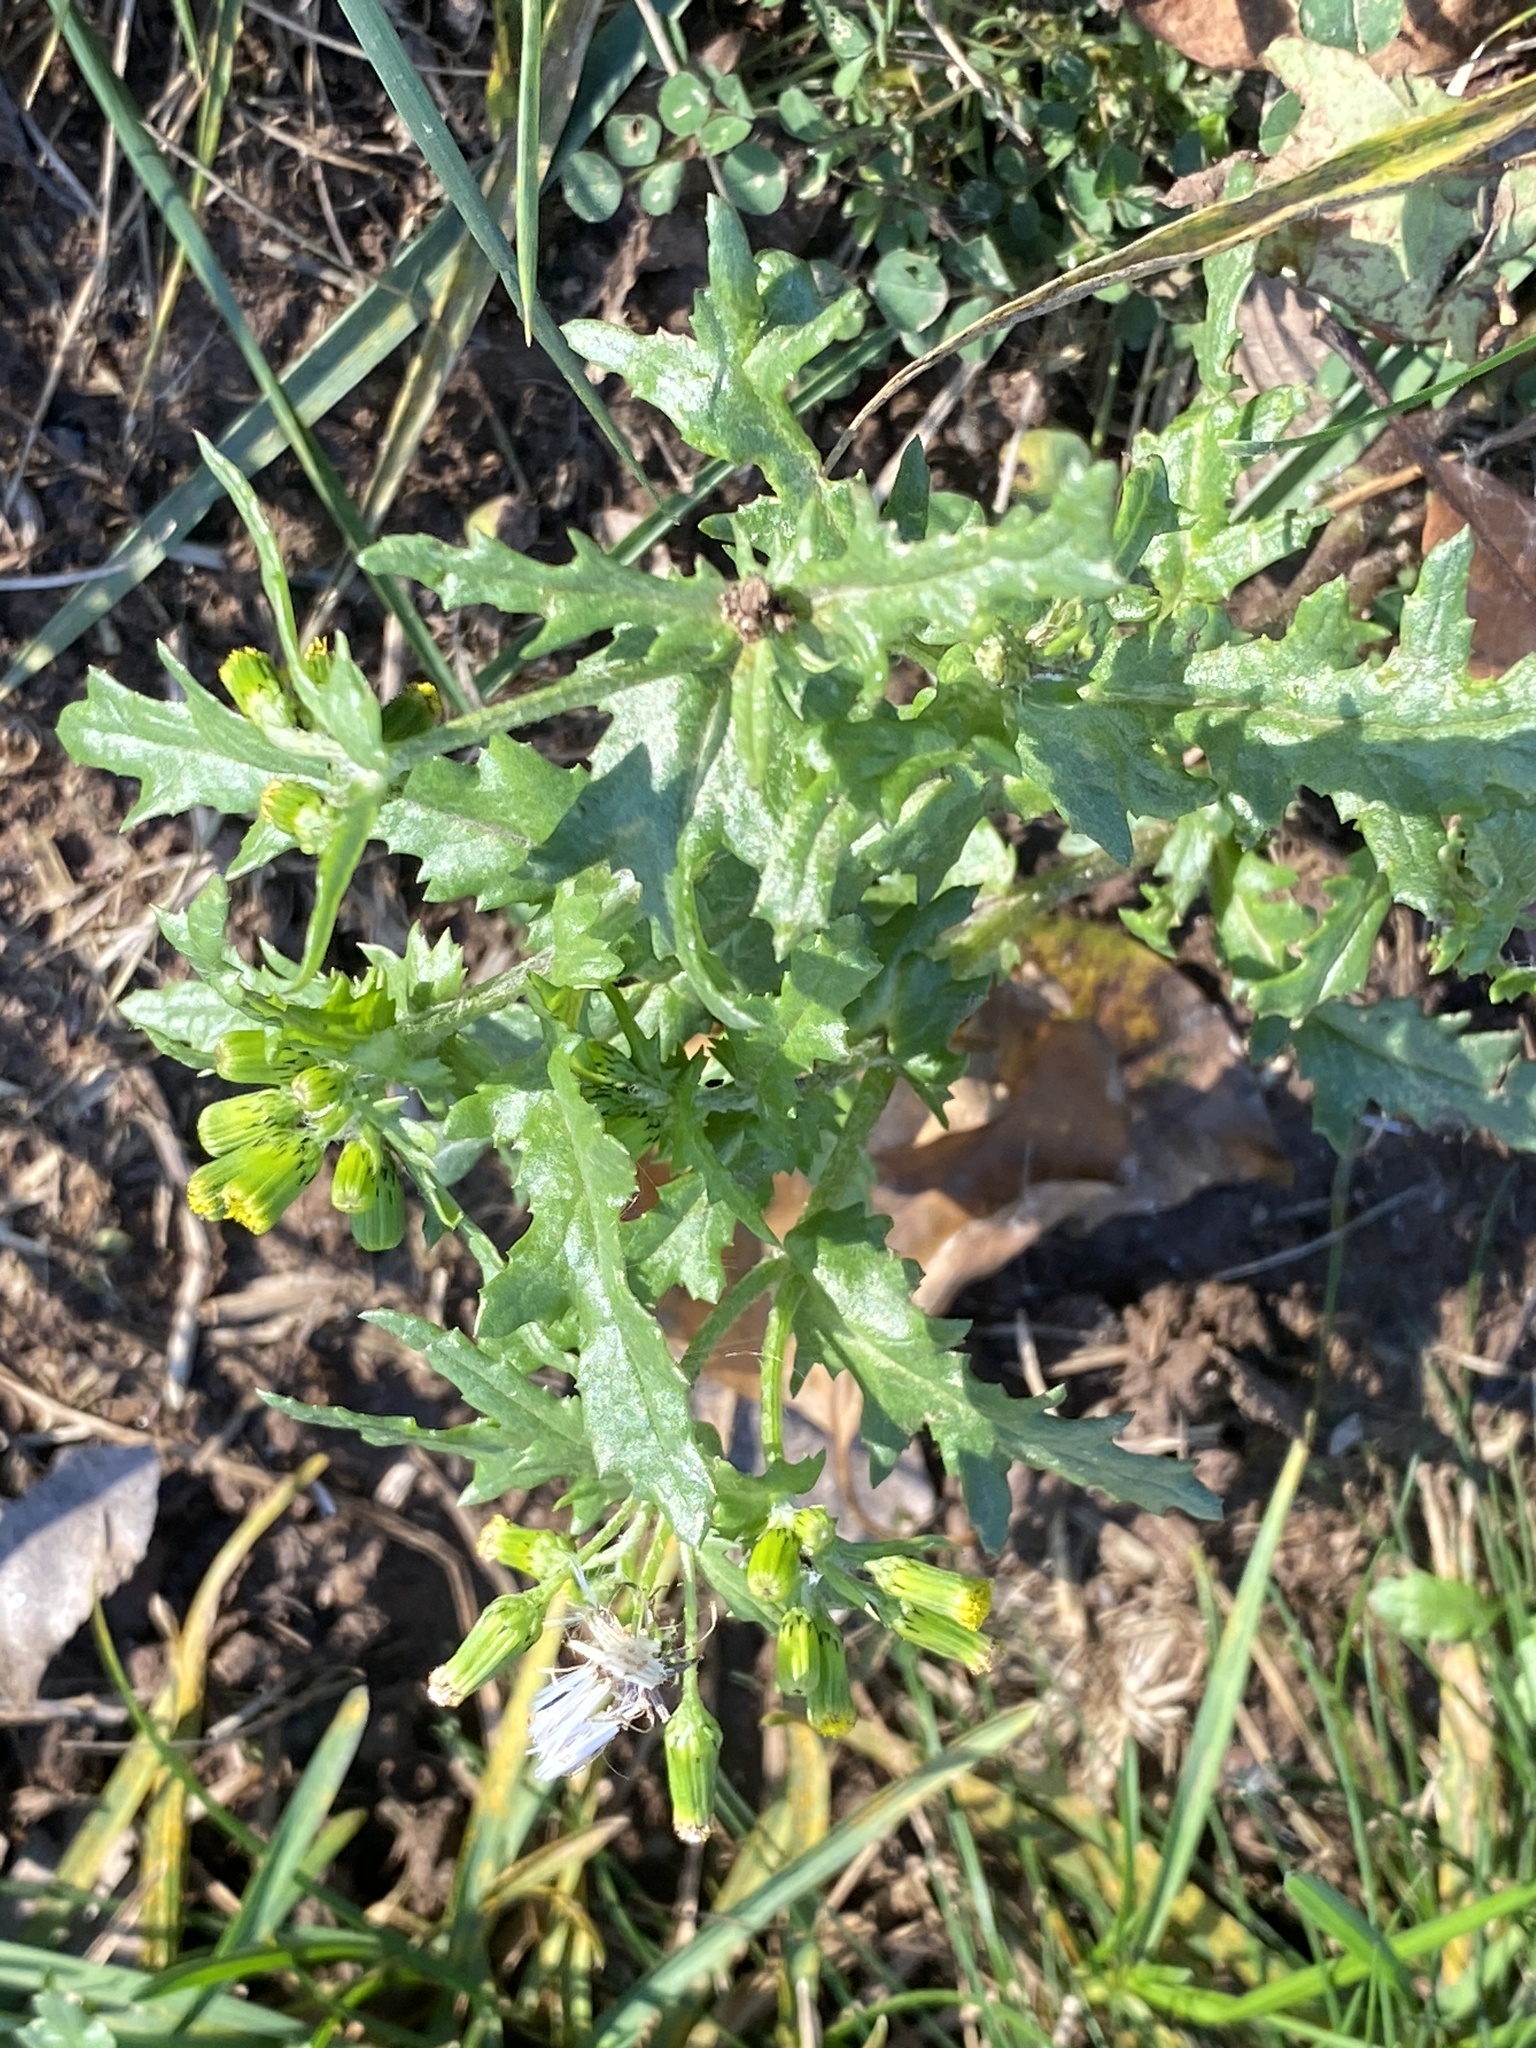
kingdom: Plantae
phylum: Tracheophyta
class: Magnoliopsida
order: Asterales
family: Asteraceae
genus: Senecio
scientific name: Senecio vulgaris
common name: Old-man-in-the-spring
